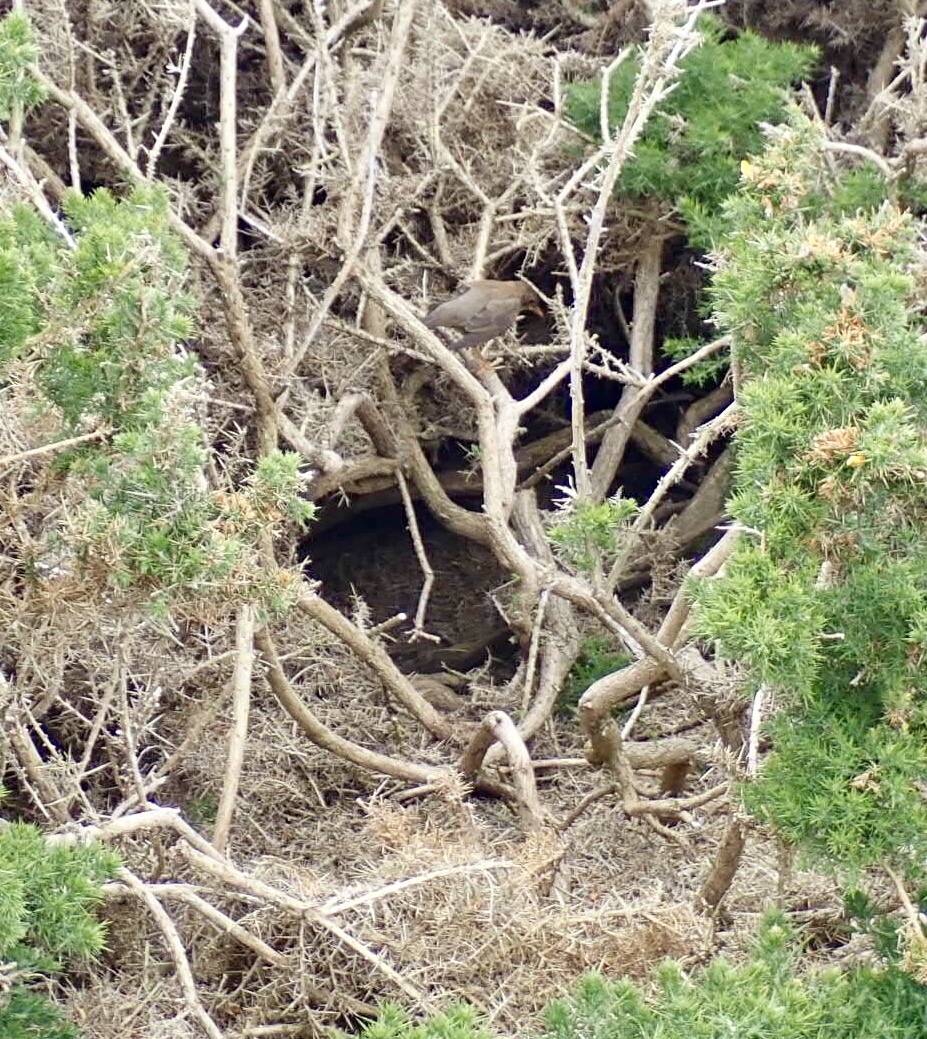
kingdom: Animalia
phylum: Chordata
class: Aves
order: Passeriformes
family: Turdidae
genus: Turdus
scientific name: Turdus falcklandii
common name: Austral thrush
